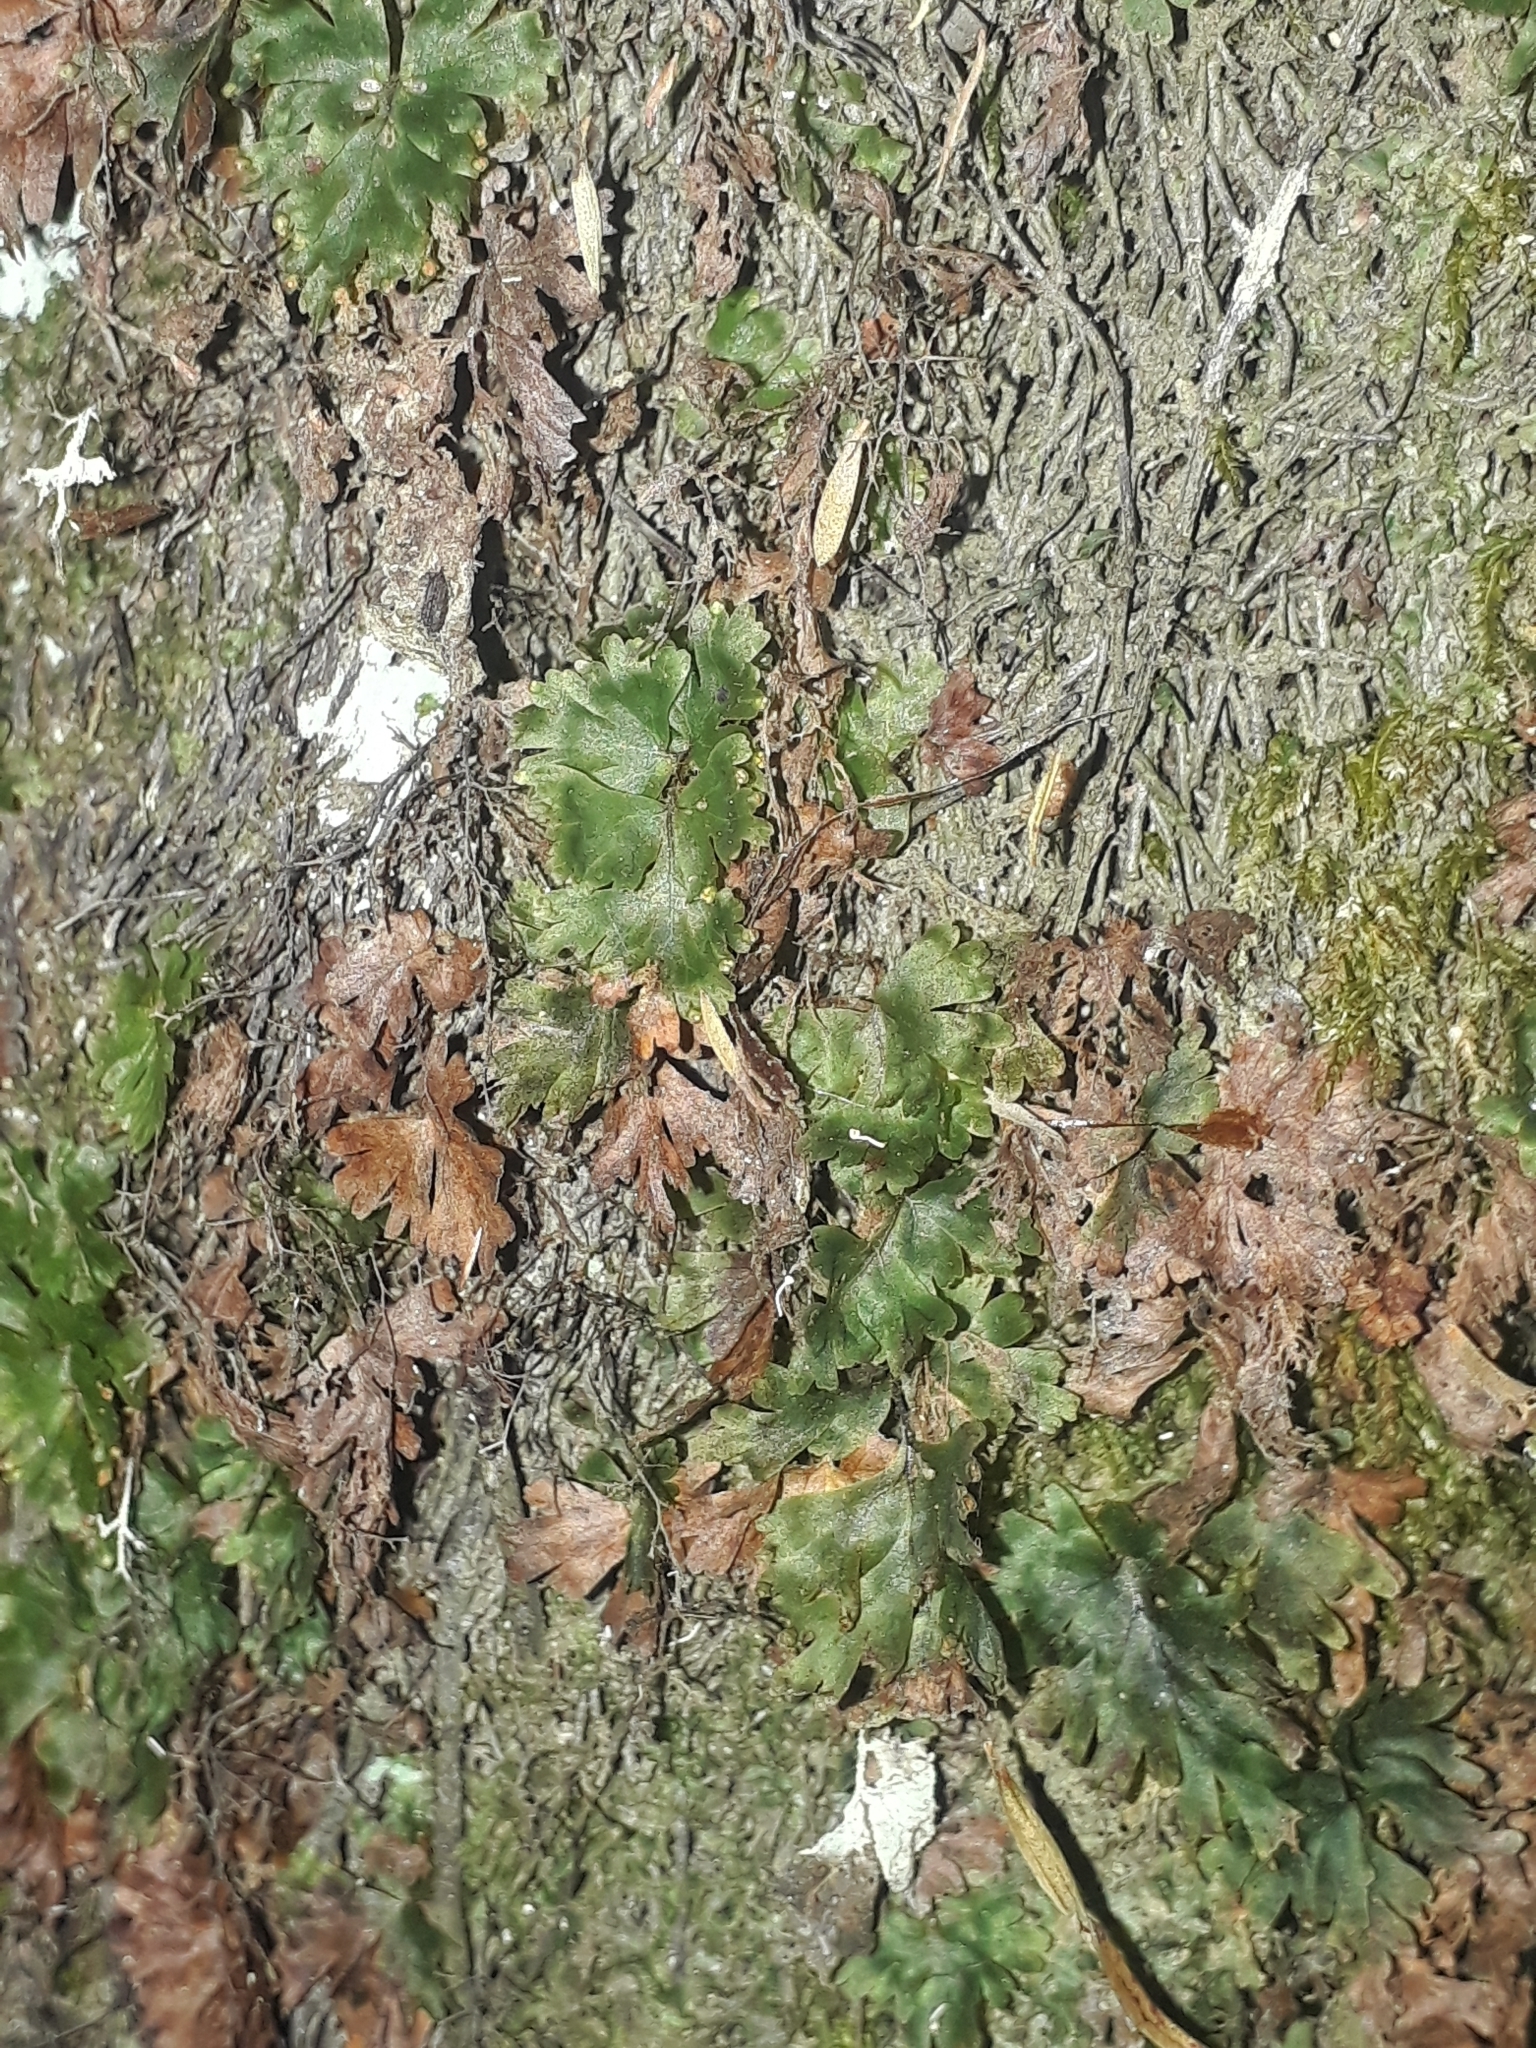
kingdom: Plantae
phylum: Tracheophyta
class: Polypodiopsida
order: Hymenophyllales
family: Hymenophyllaceae
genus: Hymenophyllum
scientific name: Hymenophyllum flabellatum
